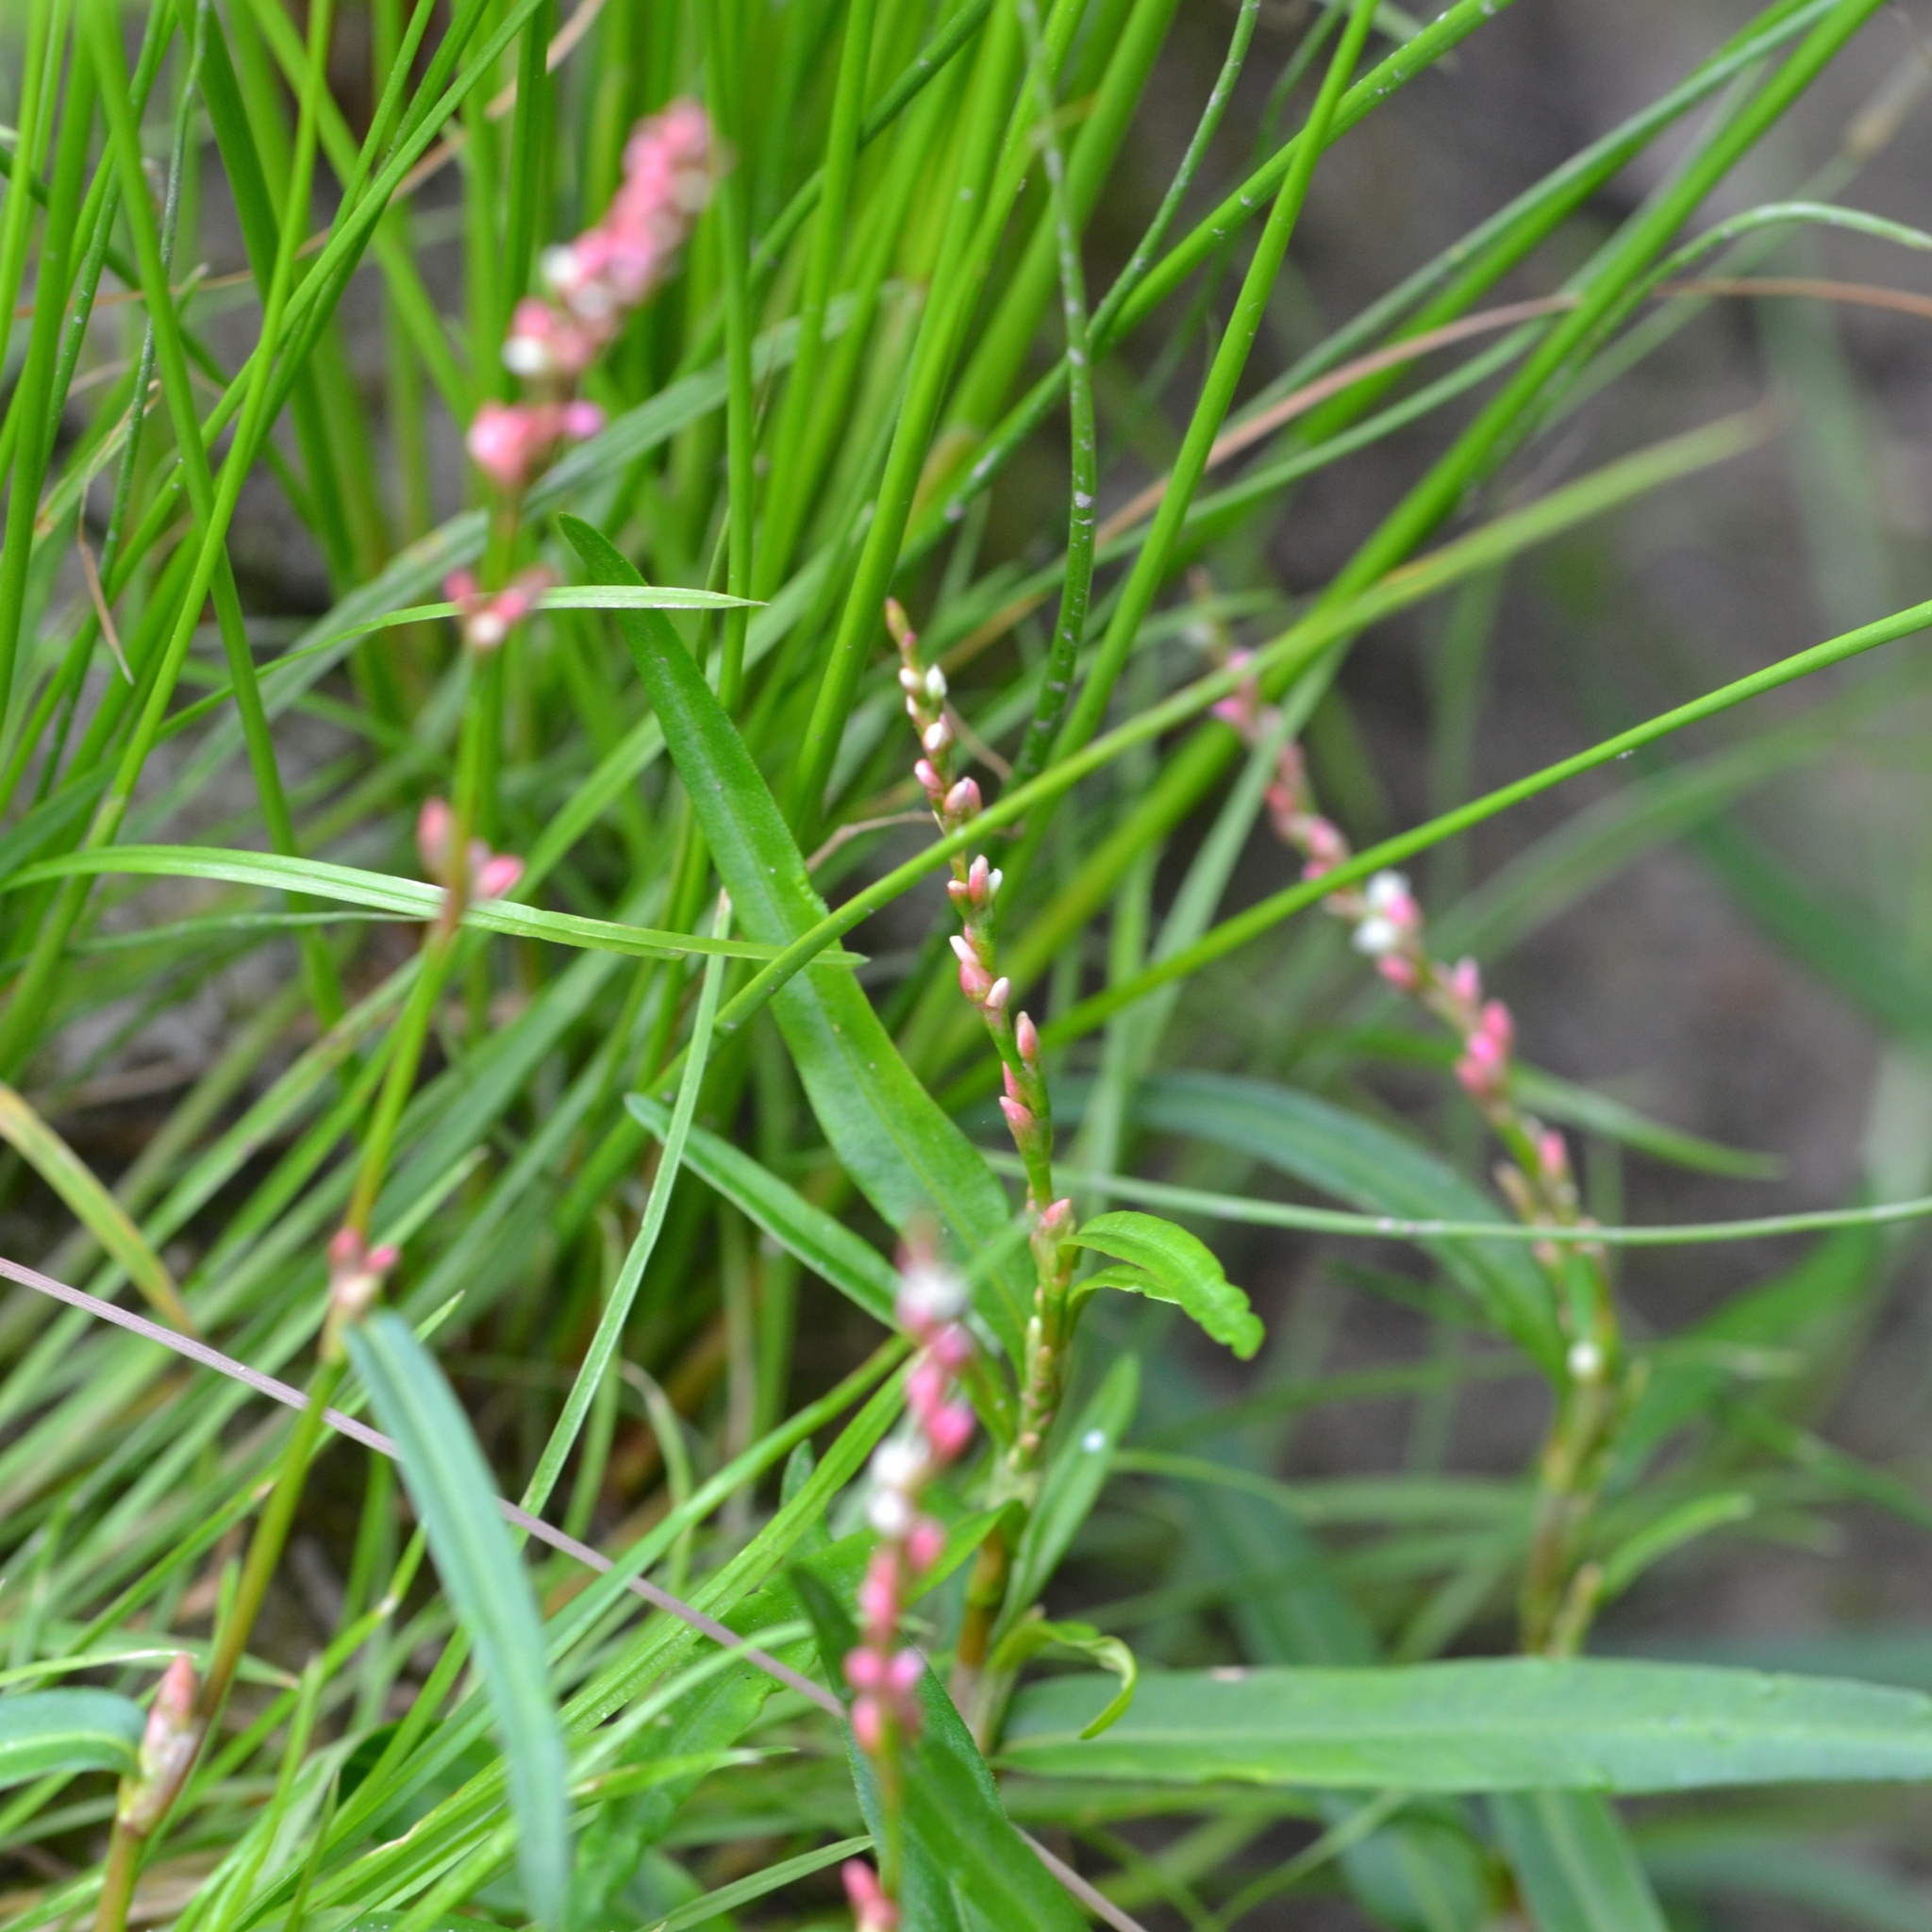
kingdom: Plantae
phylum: Tracheophyta
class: Magnoliopsida
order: Caryophyllales
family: Polygonaceae
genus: Persicaria
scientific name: Persicaria minor
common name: Small water-pepper
